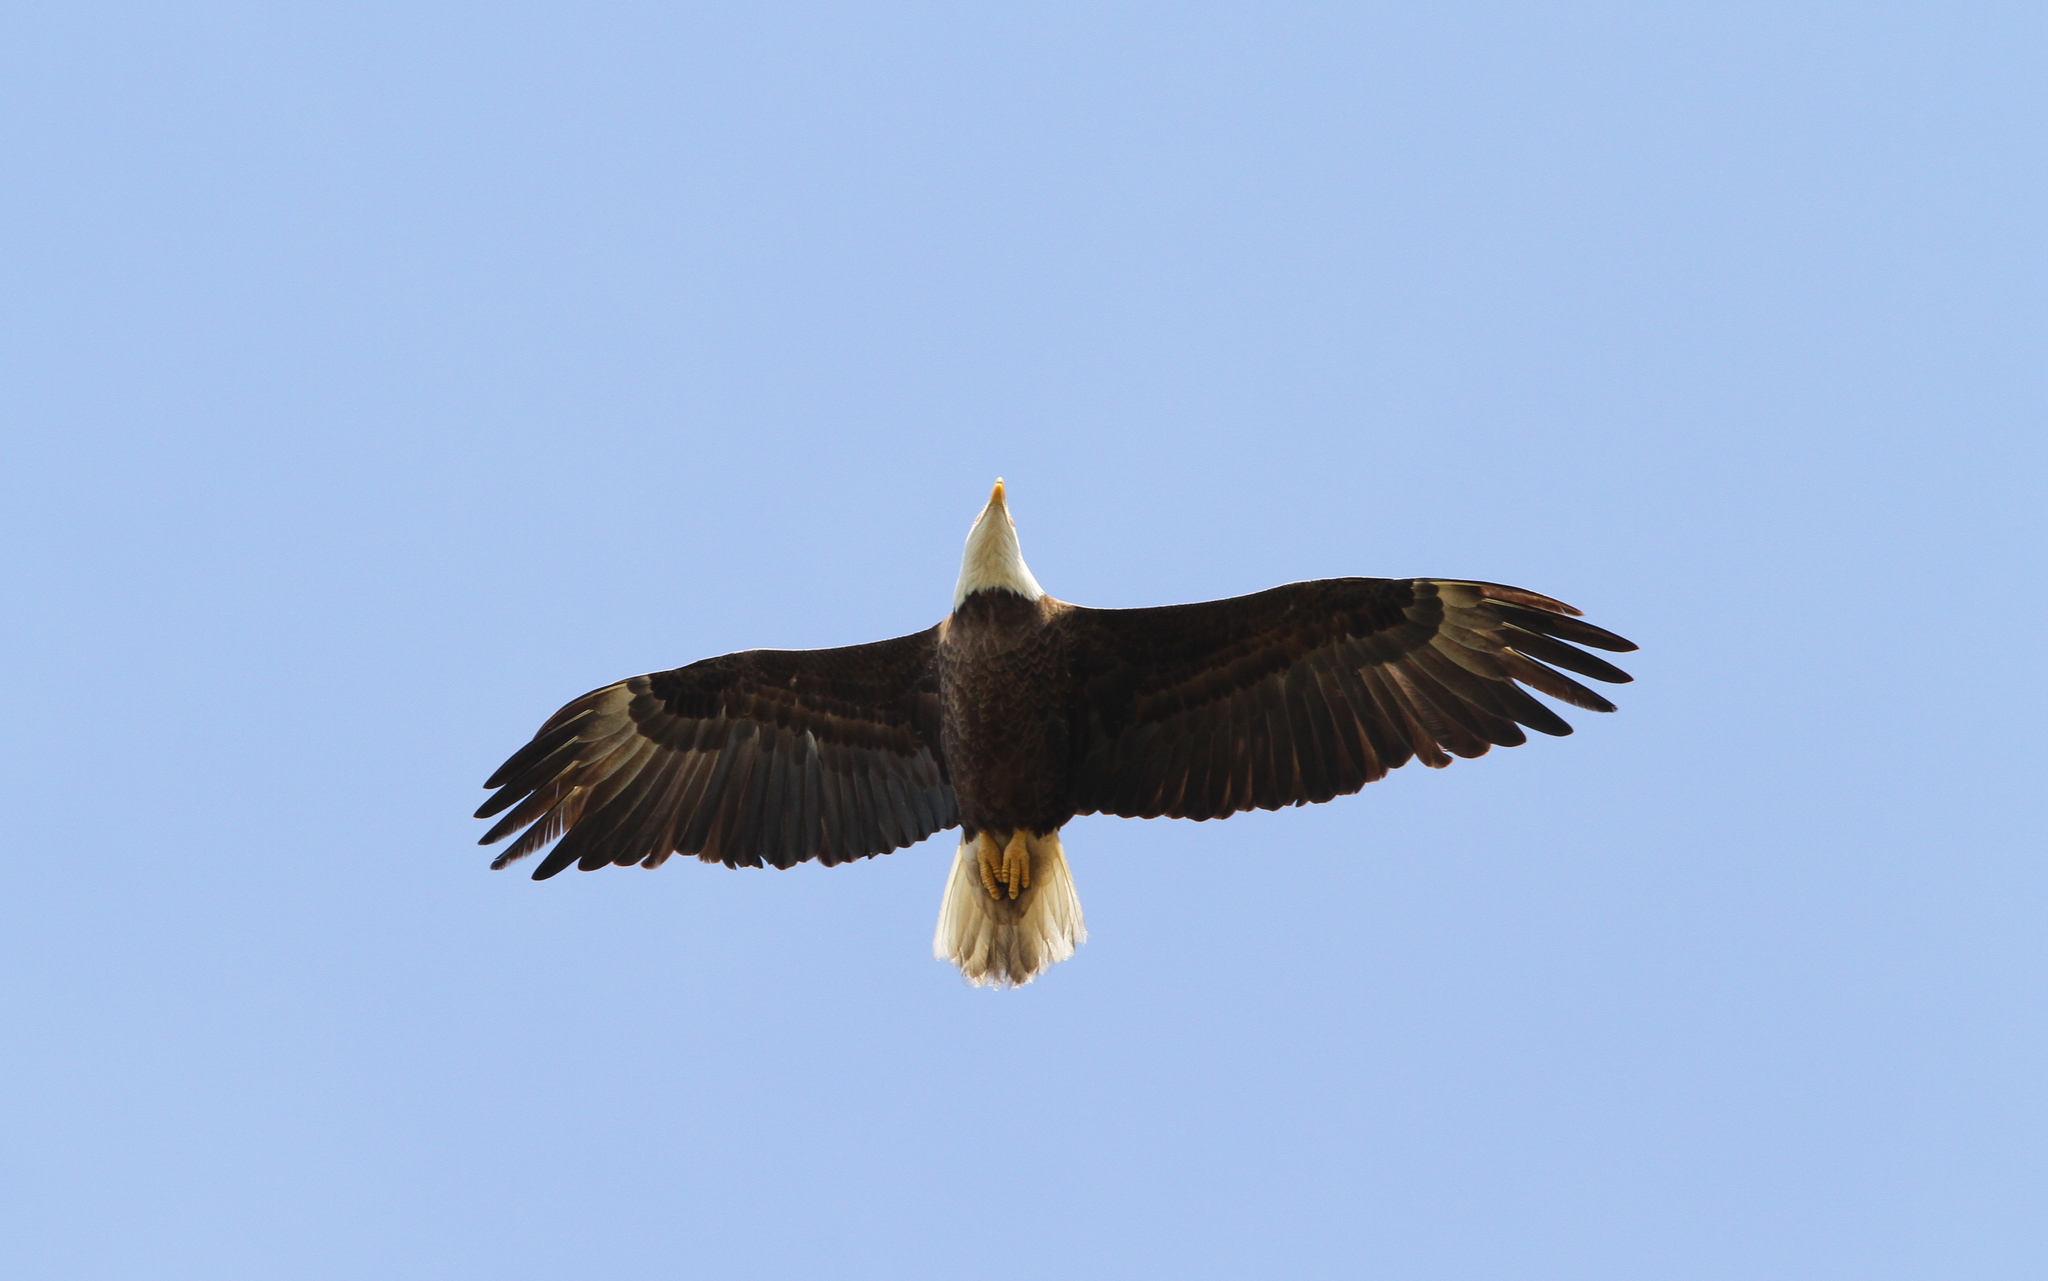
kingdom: Animalia
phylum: Chordata
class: Aves
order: Accipitriformes
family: Accipitridae
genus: Haliaeetus
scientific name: Haliaeetus leucocephalus
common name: Bald eagle
